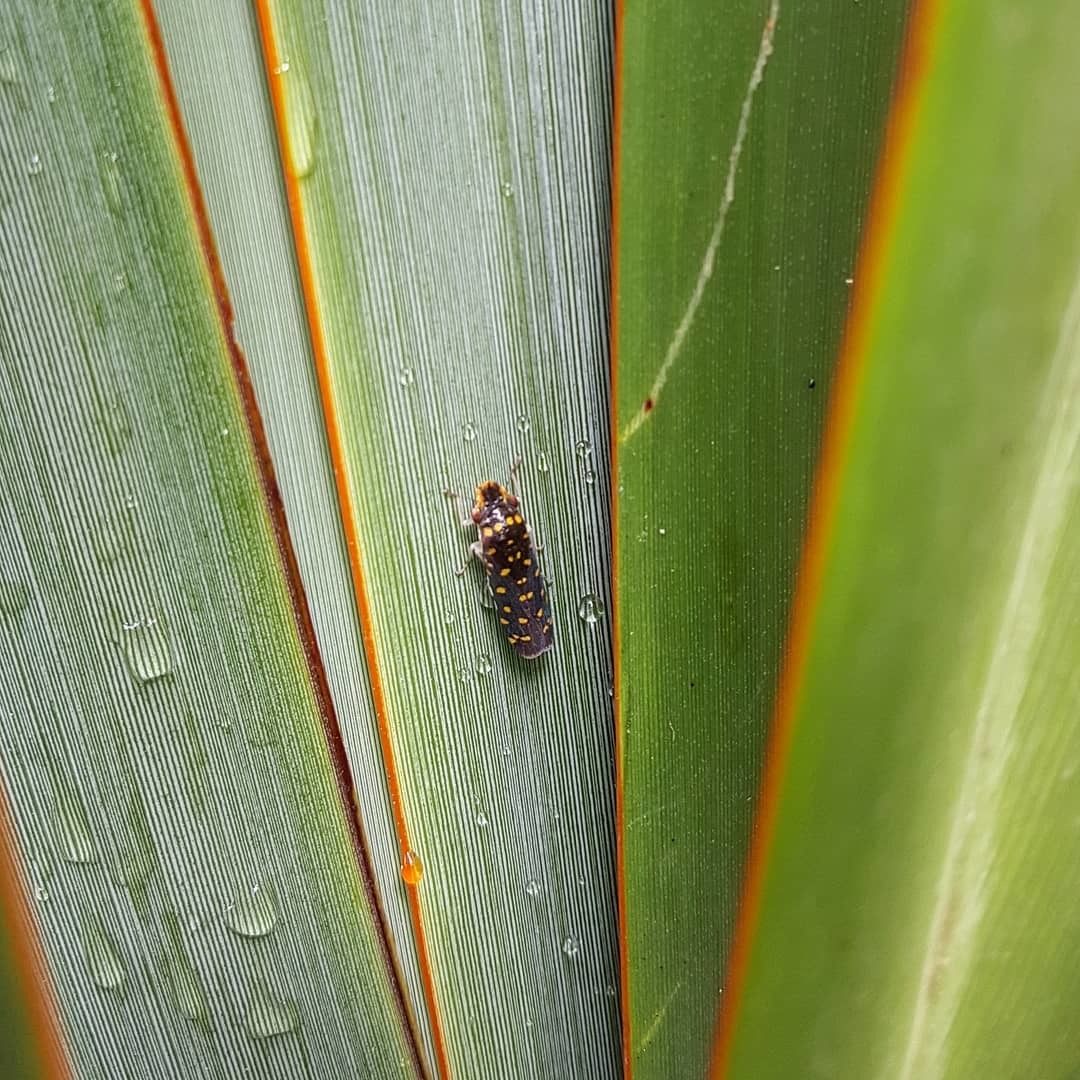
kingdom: Animalia
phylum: Arthropoda
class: Insecta
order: Hemiptera
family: Cicadellidae
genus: Paraulacizes
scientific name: Paraulacizes thunbergii
